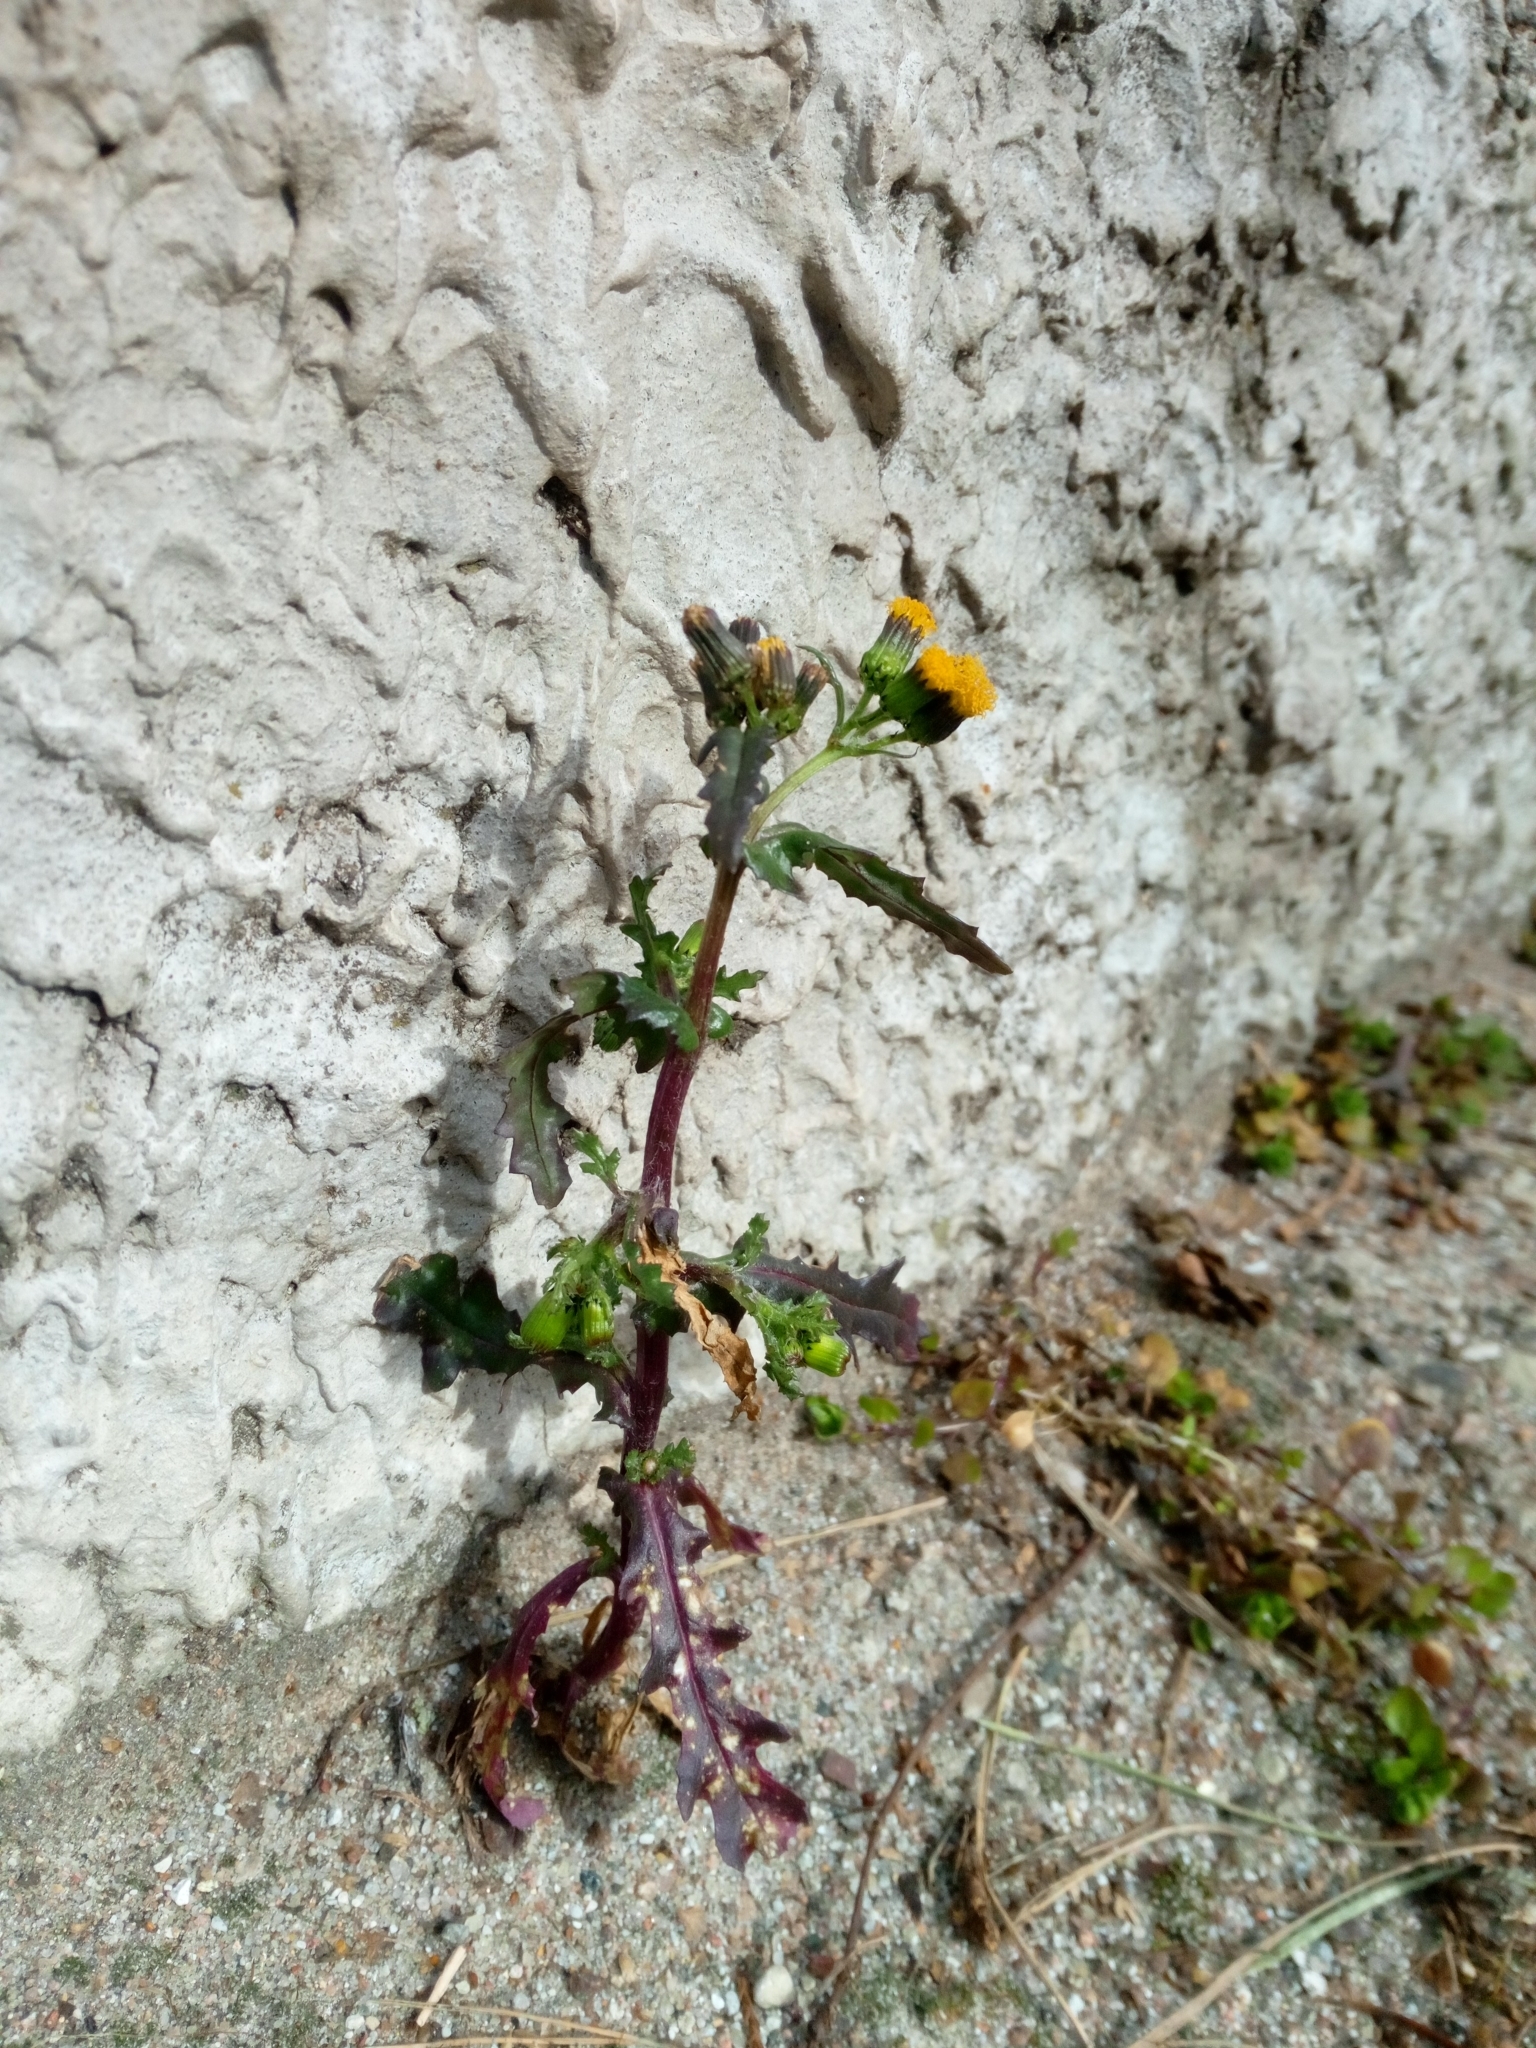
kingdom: Plantae
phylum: Tracheophyta
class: Magnoliopsida
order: Asterales
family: Asteraceae
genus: Senecio
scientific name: Senecio vulgaris
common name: Old-man-in-the-spring
